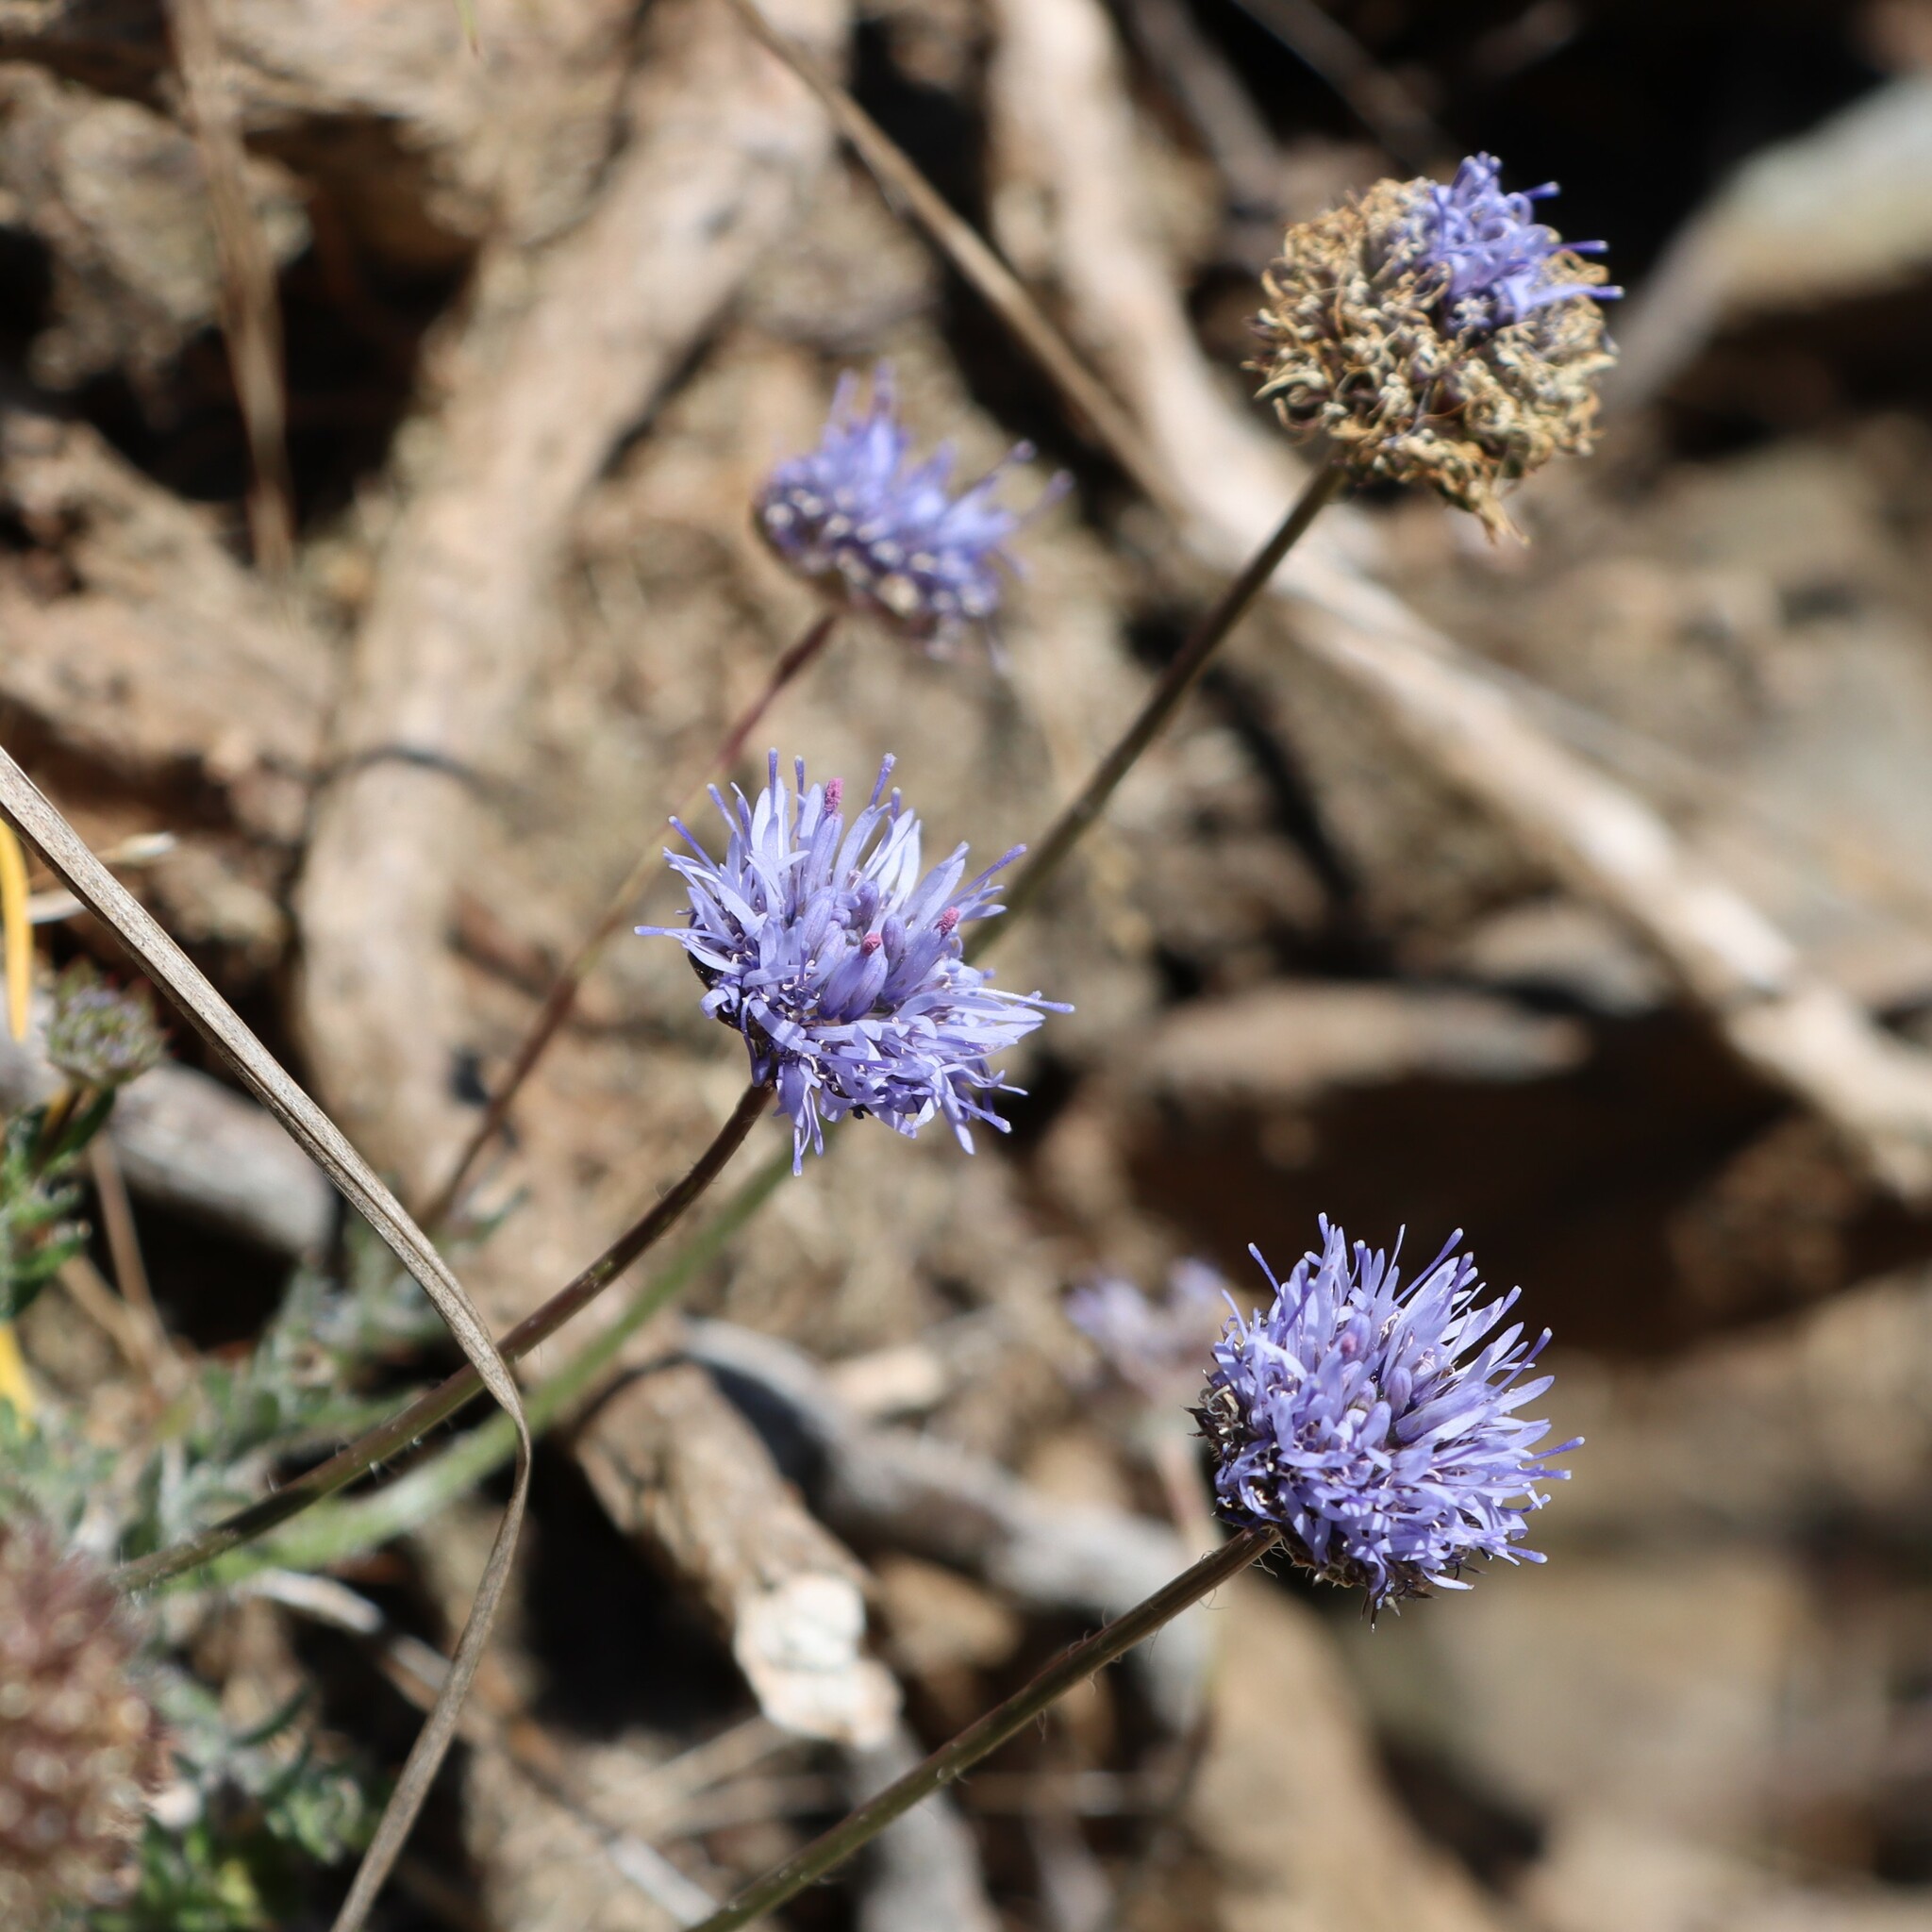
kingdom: Plantae
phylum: Tracheophyta
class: Magnoliopsida
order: Asterales
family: Campanulaceae
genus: Jasione
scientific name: Jasione montana
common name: Sheep's-bit
